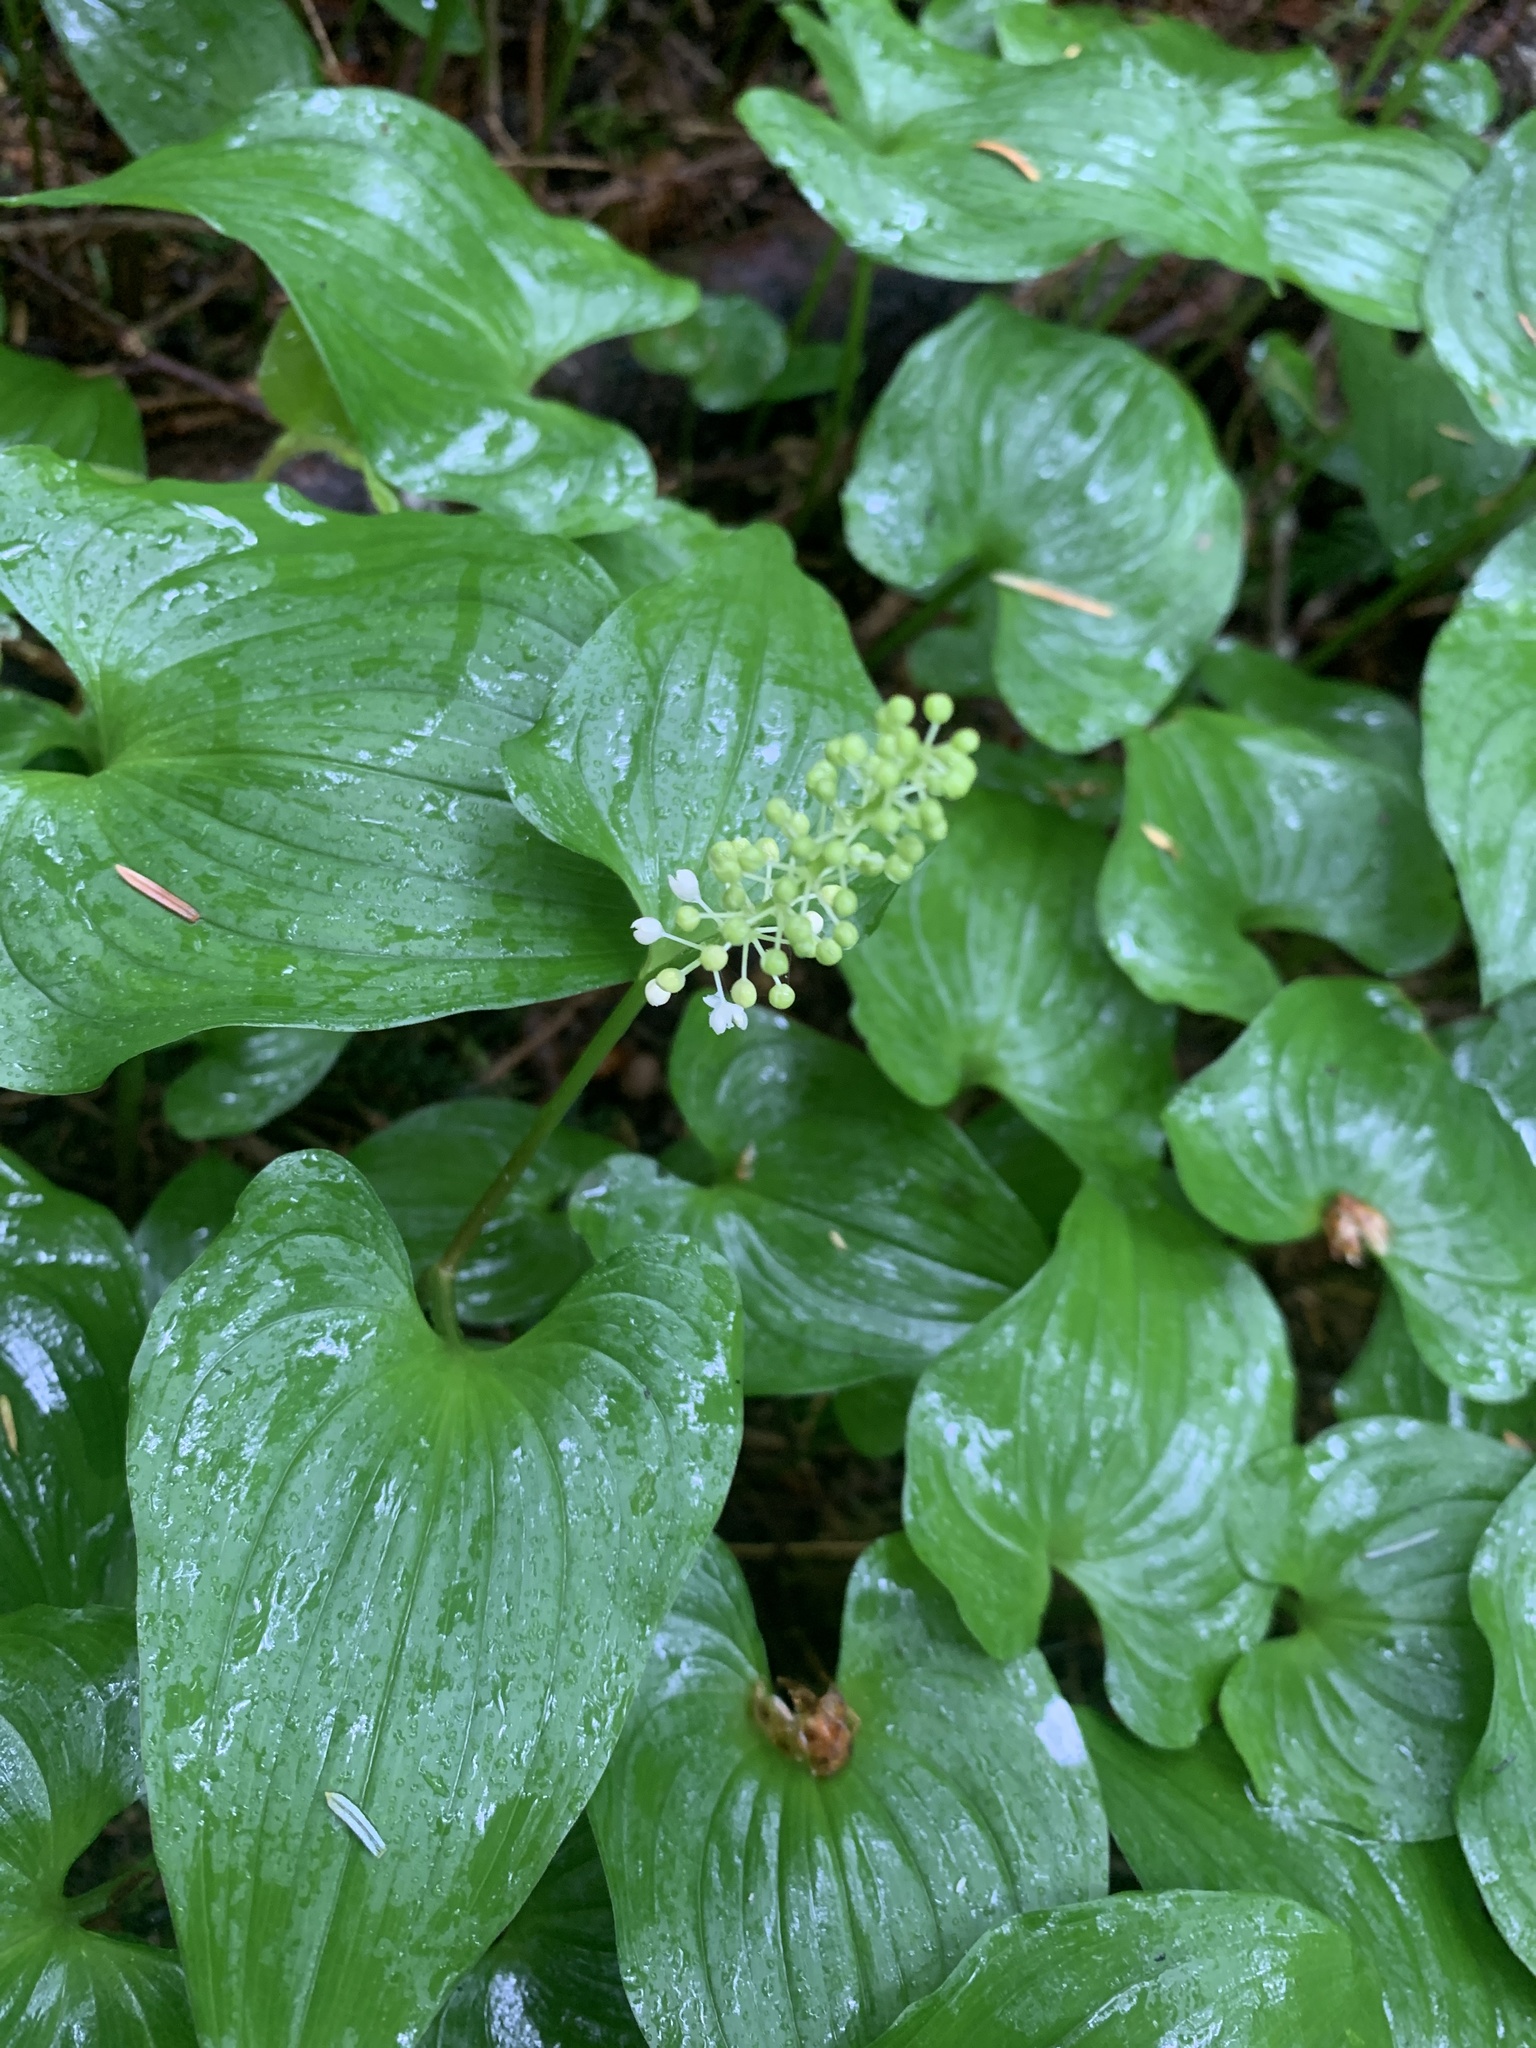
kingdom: Plantae
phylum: Tracheophyta
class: Liliopsida
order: Asparagales
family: Asparagaceae
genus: Maianthemum
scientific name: Maianthemum dilatatum
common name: False lily-of-the-valley
